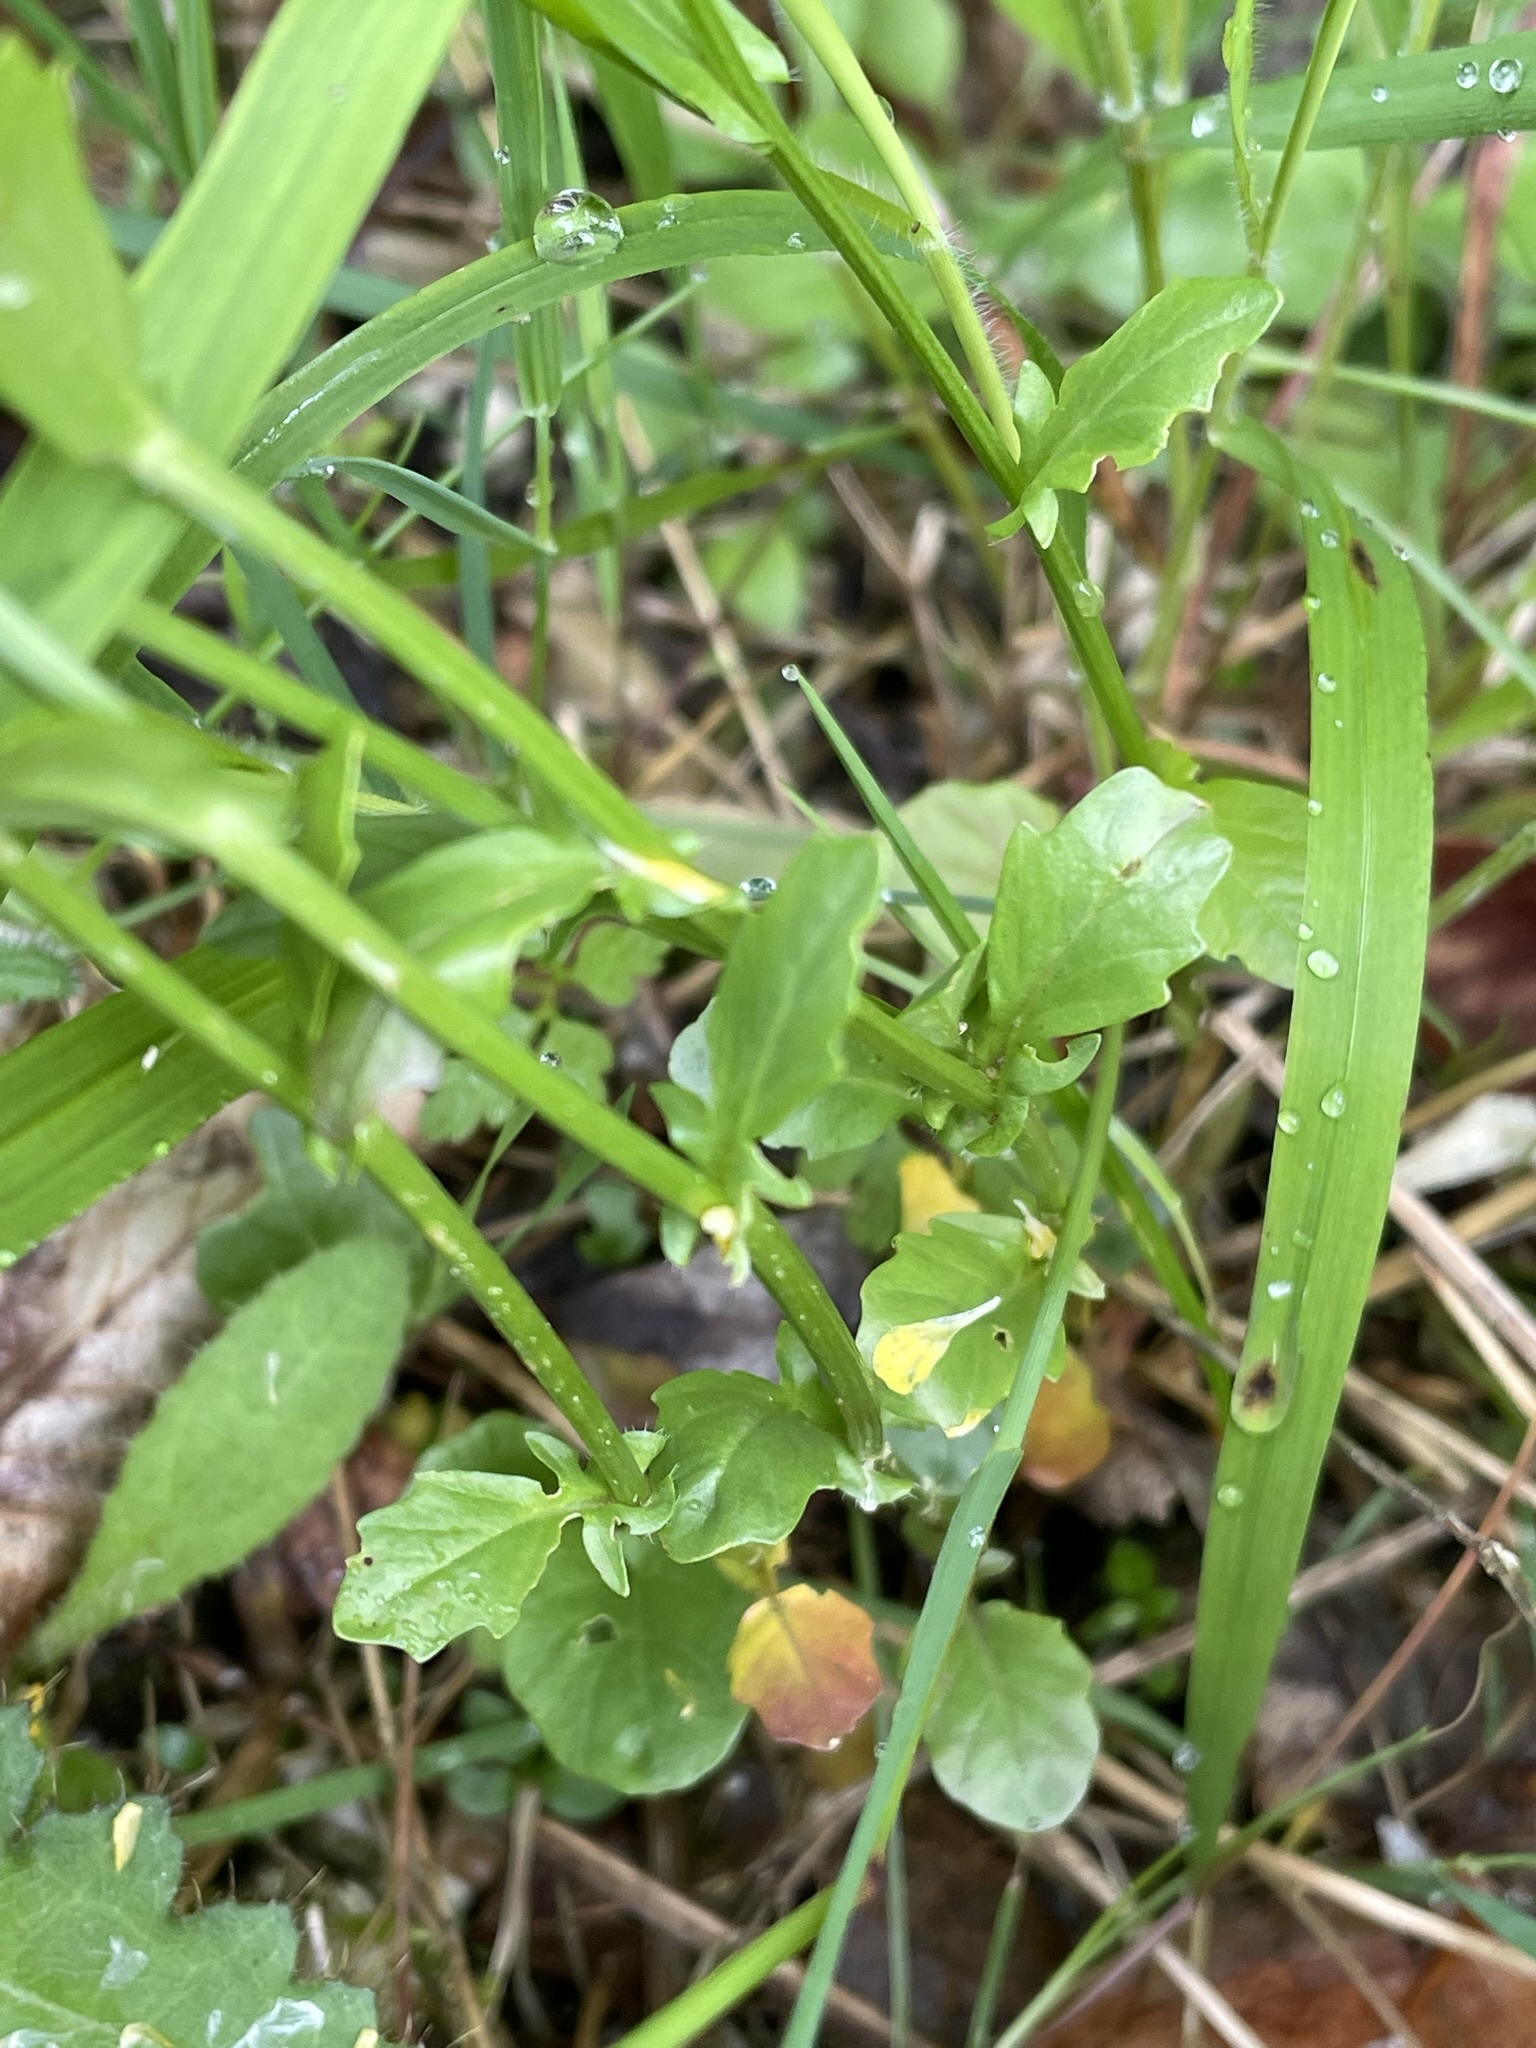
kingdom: Plantae
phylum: Tracheophyta
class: Magnoliopsida
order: Brassicales
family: Brassicaceae
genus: Barbarea
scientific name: Barbarea vulgaris
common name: Cressy-greens
